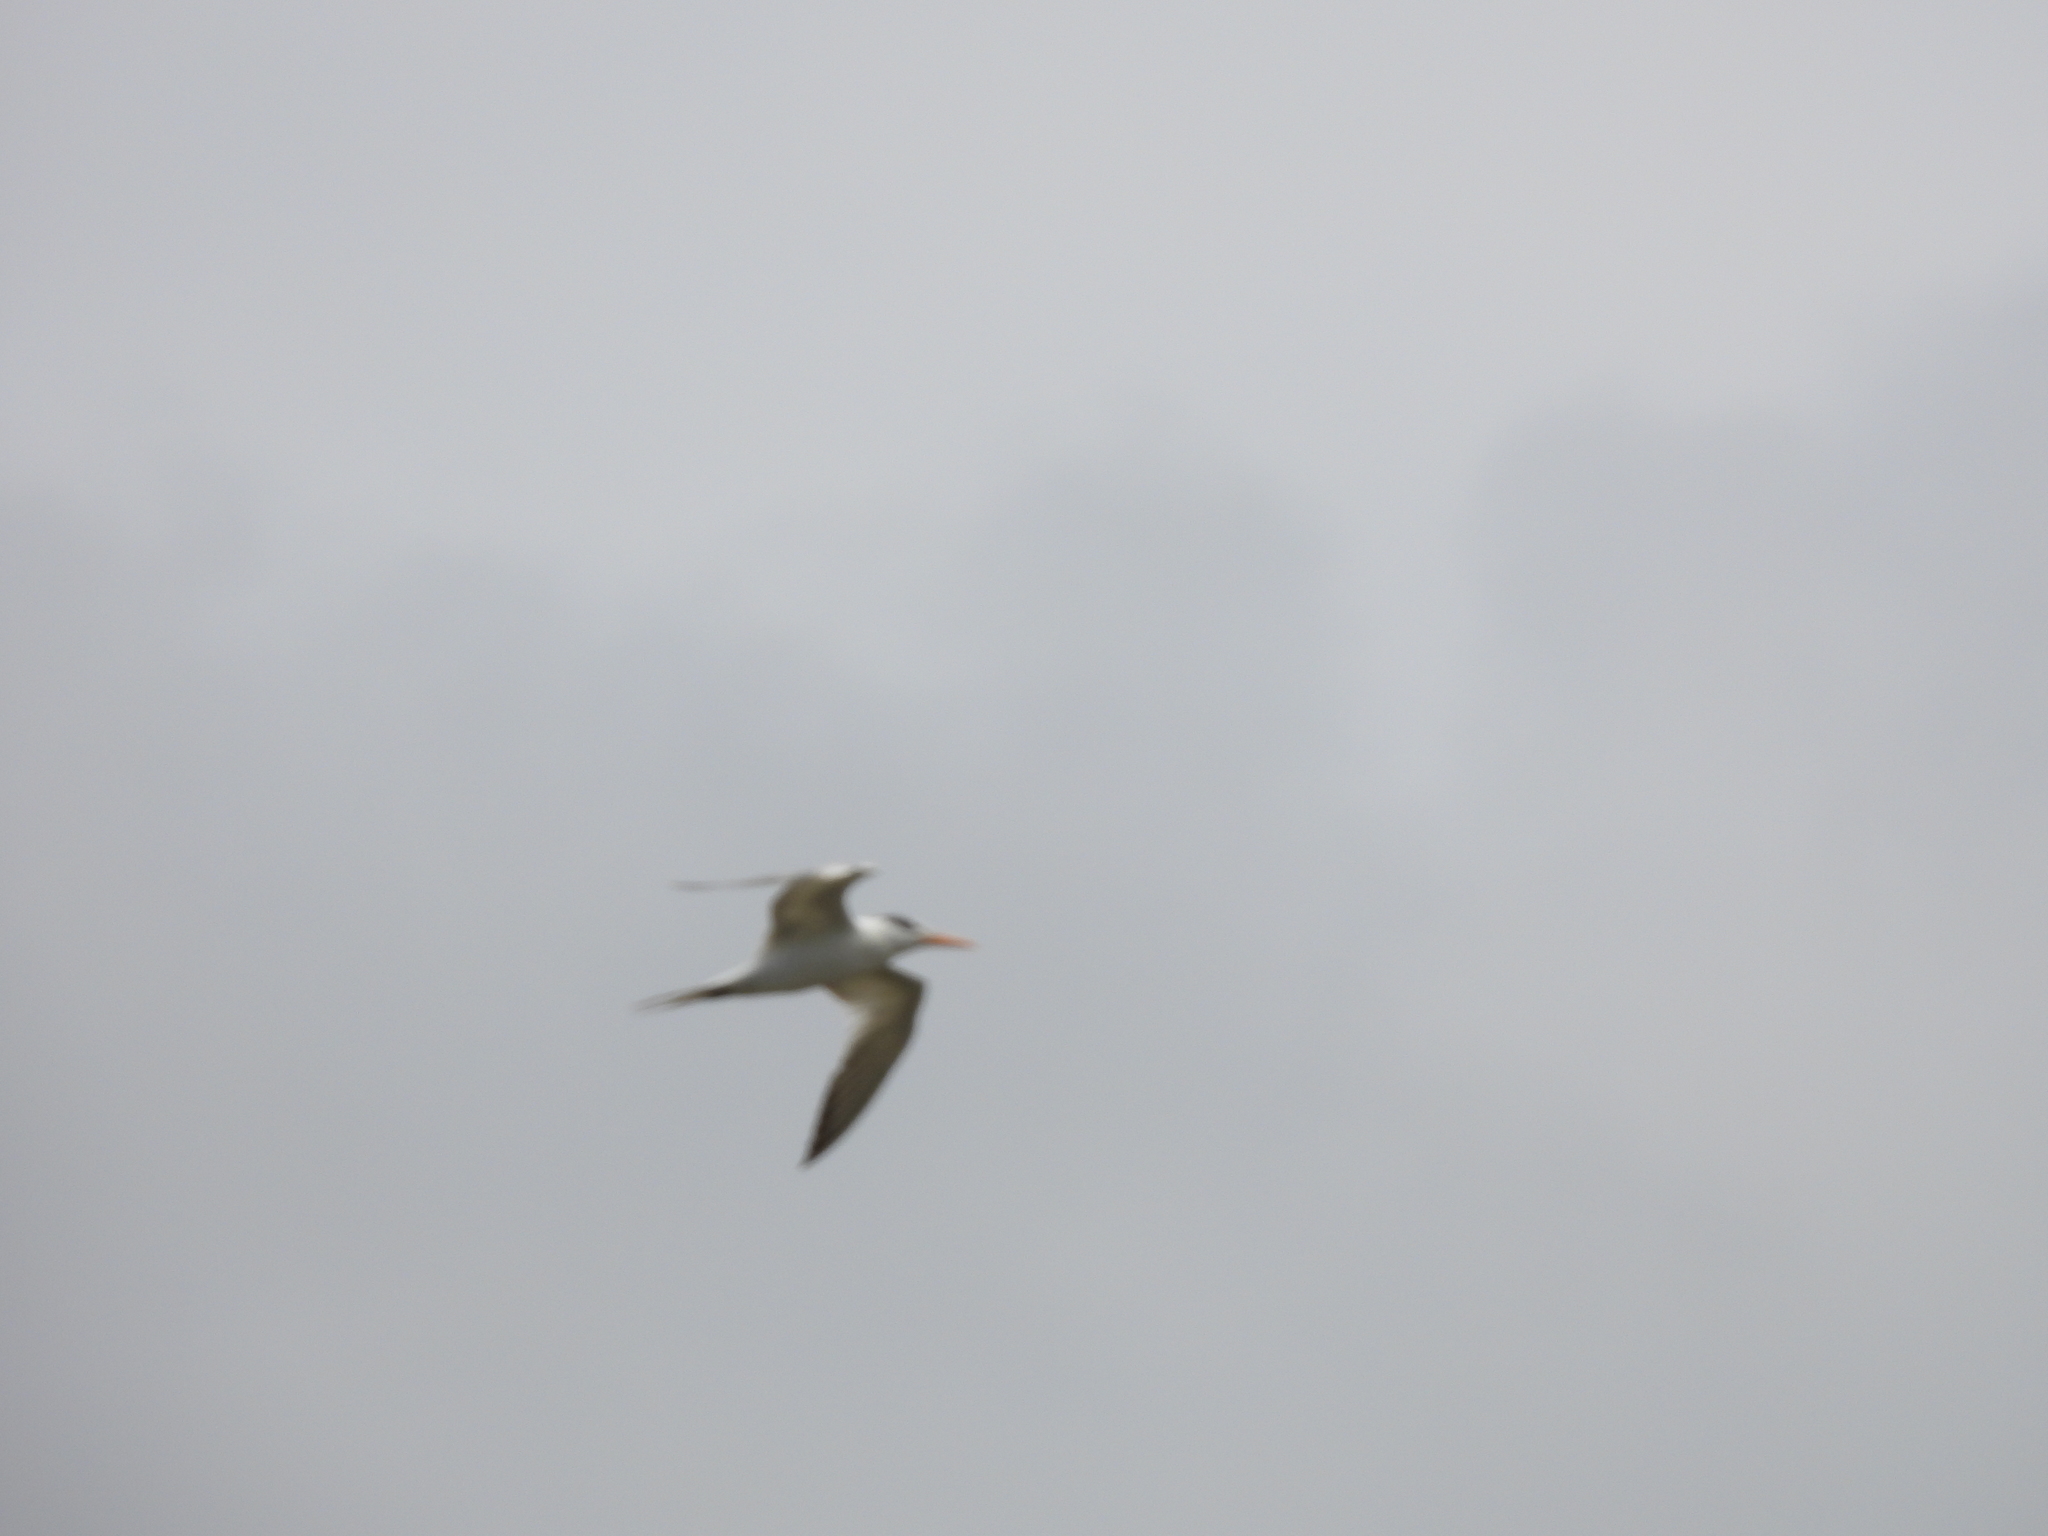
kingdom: Animalia
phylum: Chordata
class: Aves
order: Charadriiformes
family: Laridae
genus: Thalasseus
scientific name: Thalasseus maximus
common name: Royal tern
